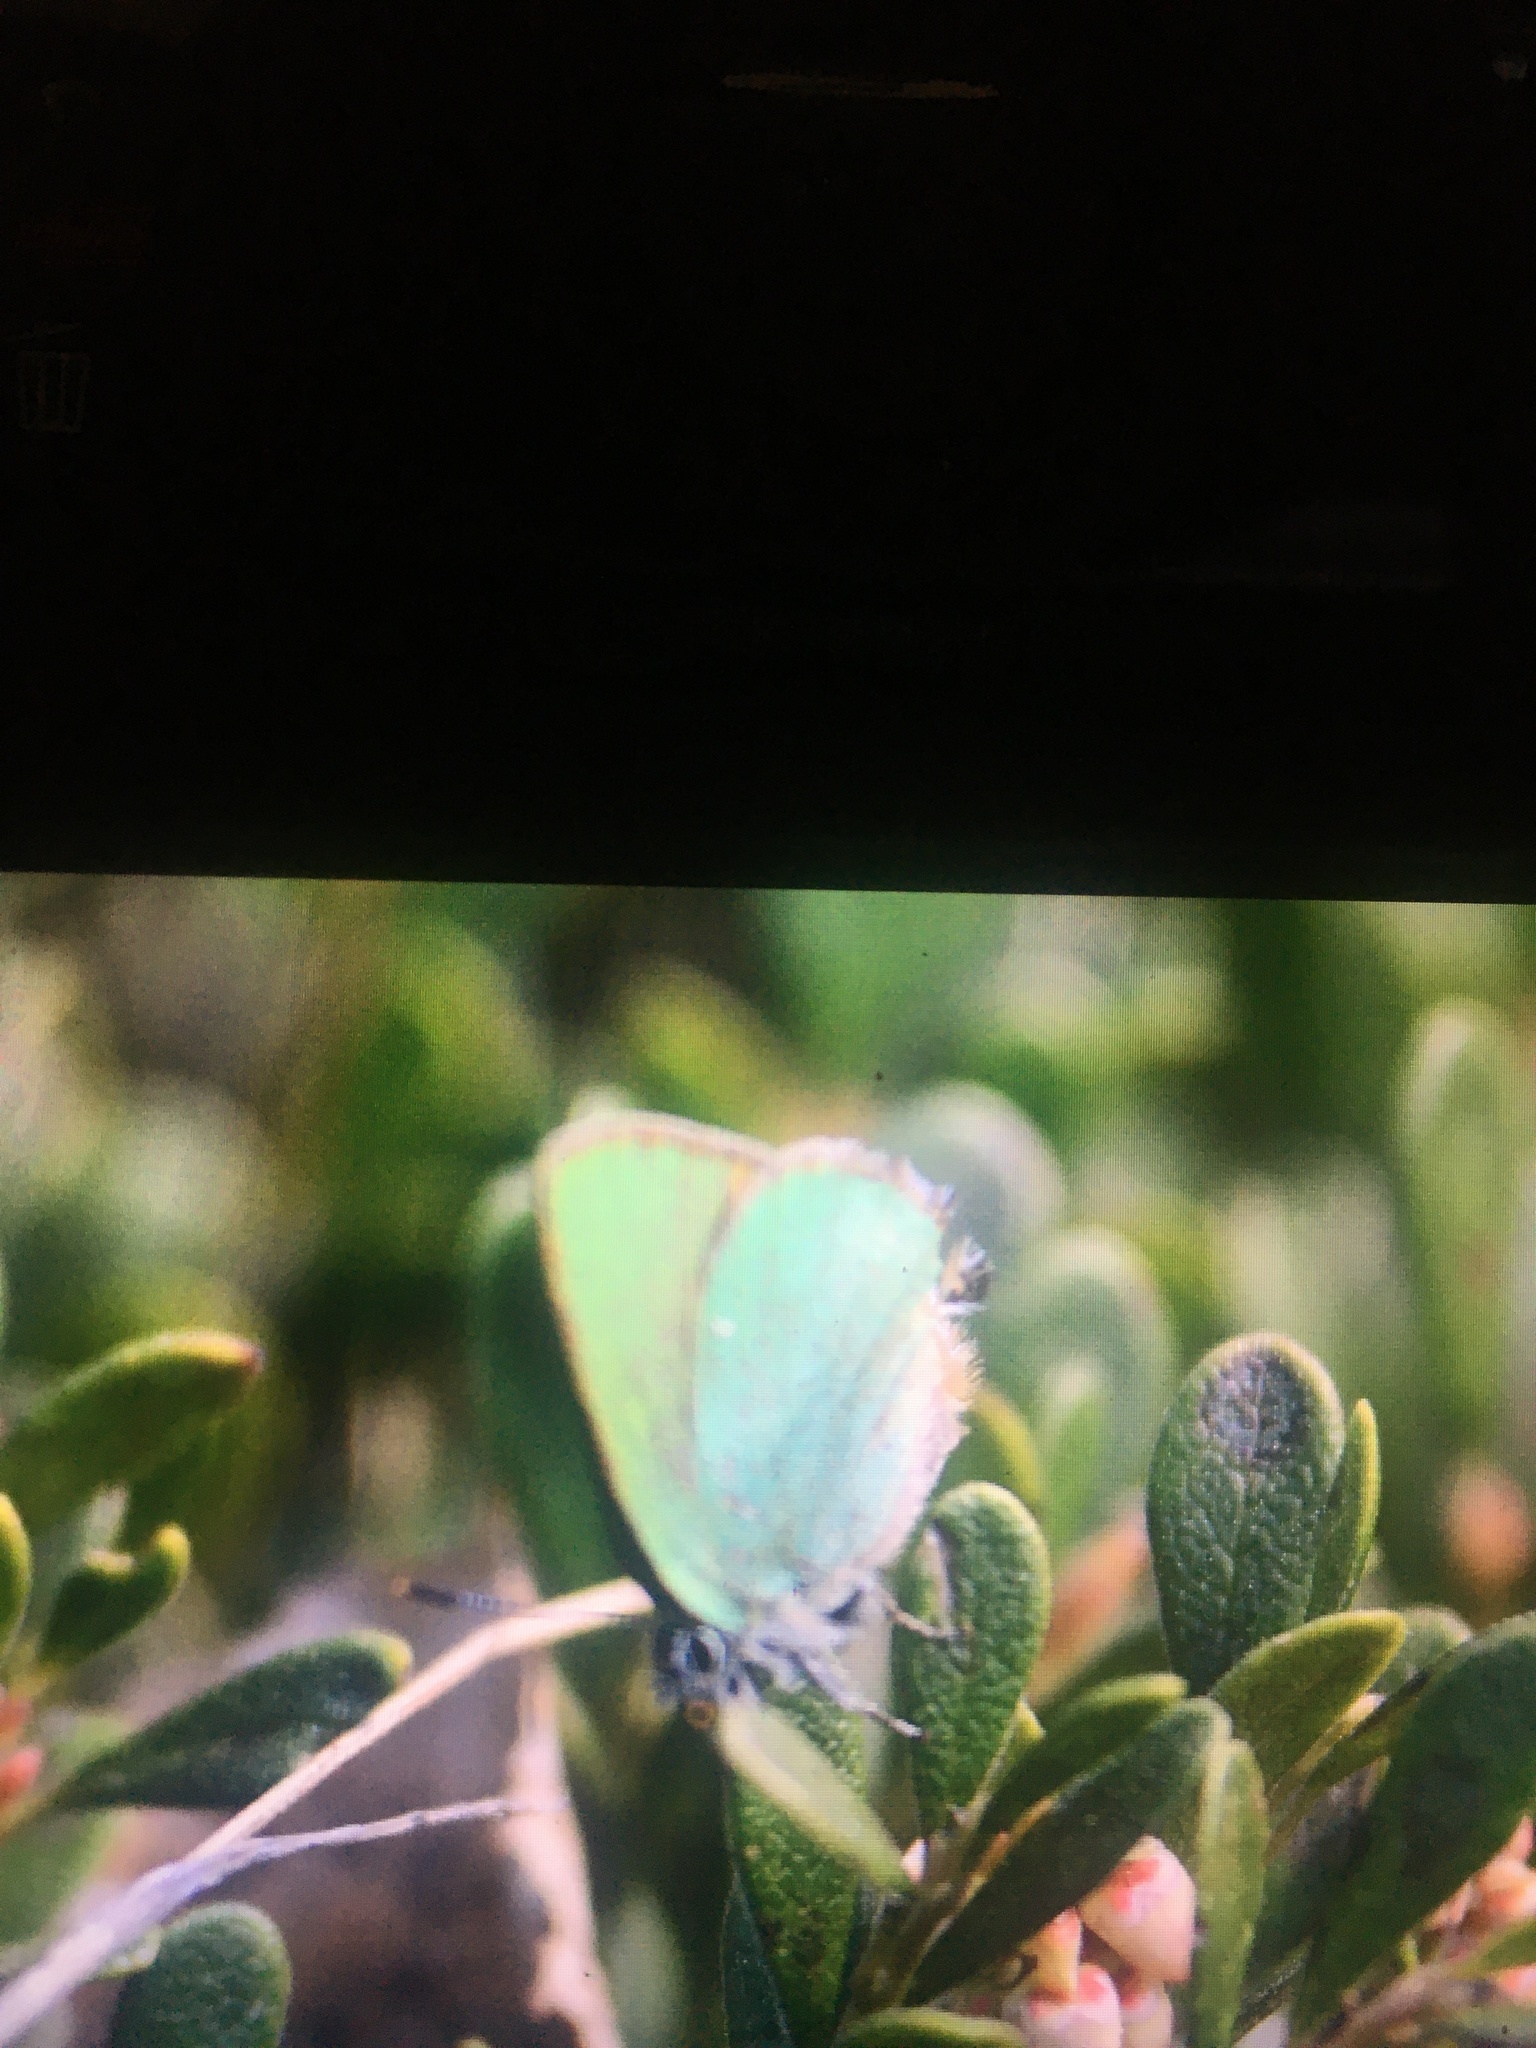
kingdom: Animalia
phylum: Arthropoda
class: Insecta
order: Lepidoptera
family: Lycaenidae
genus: Callophrys
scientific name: Callophrys rubi
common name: Green hairstreak
